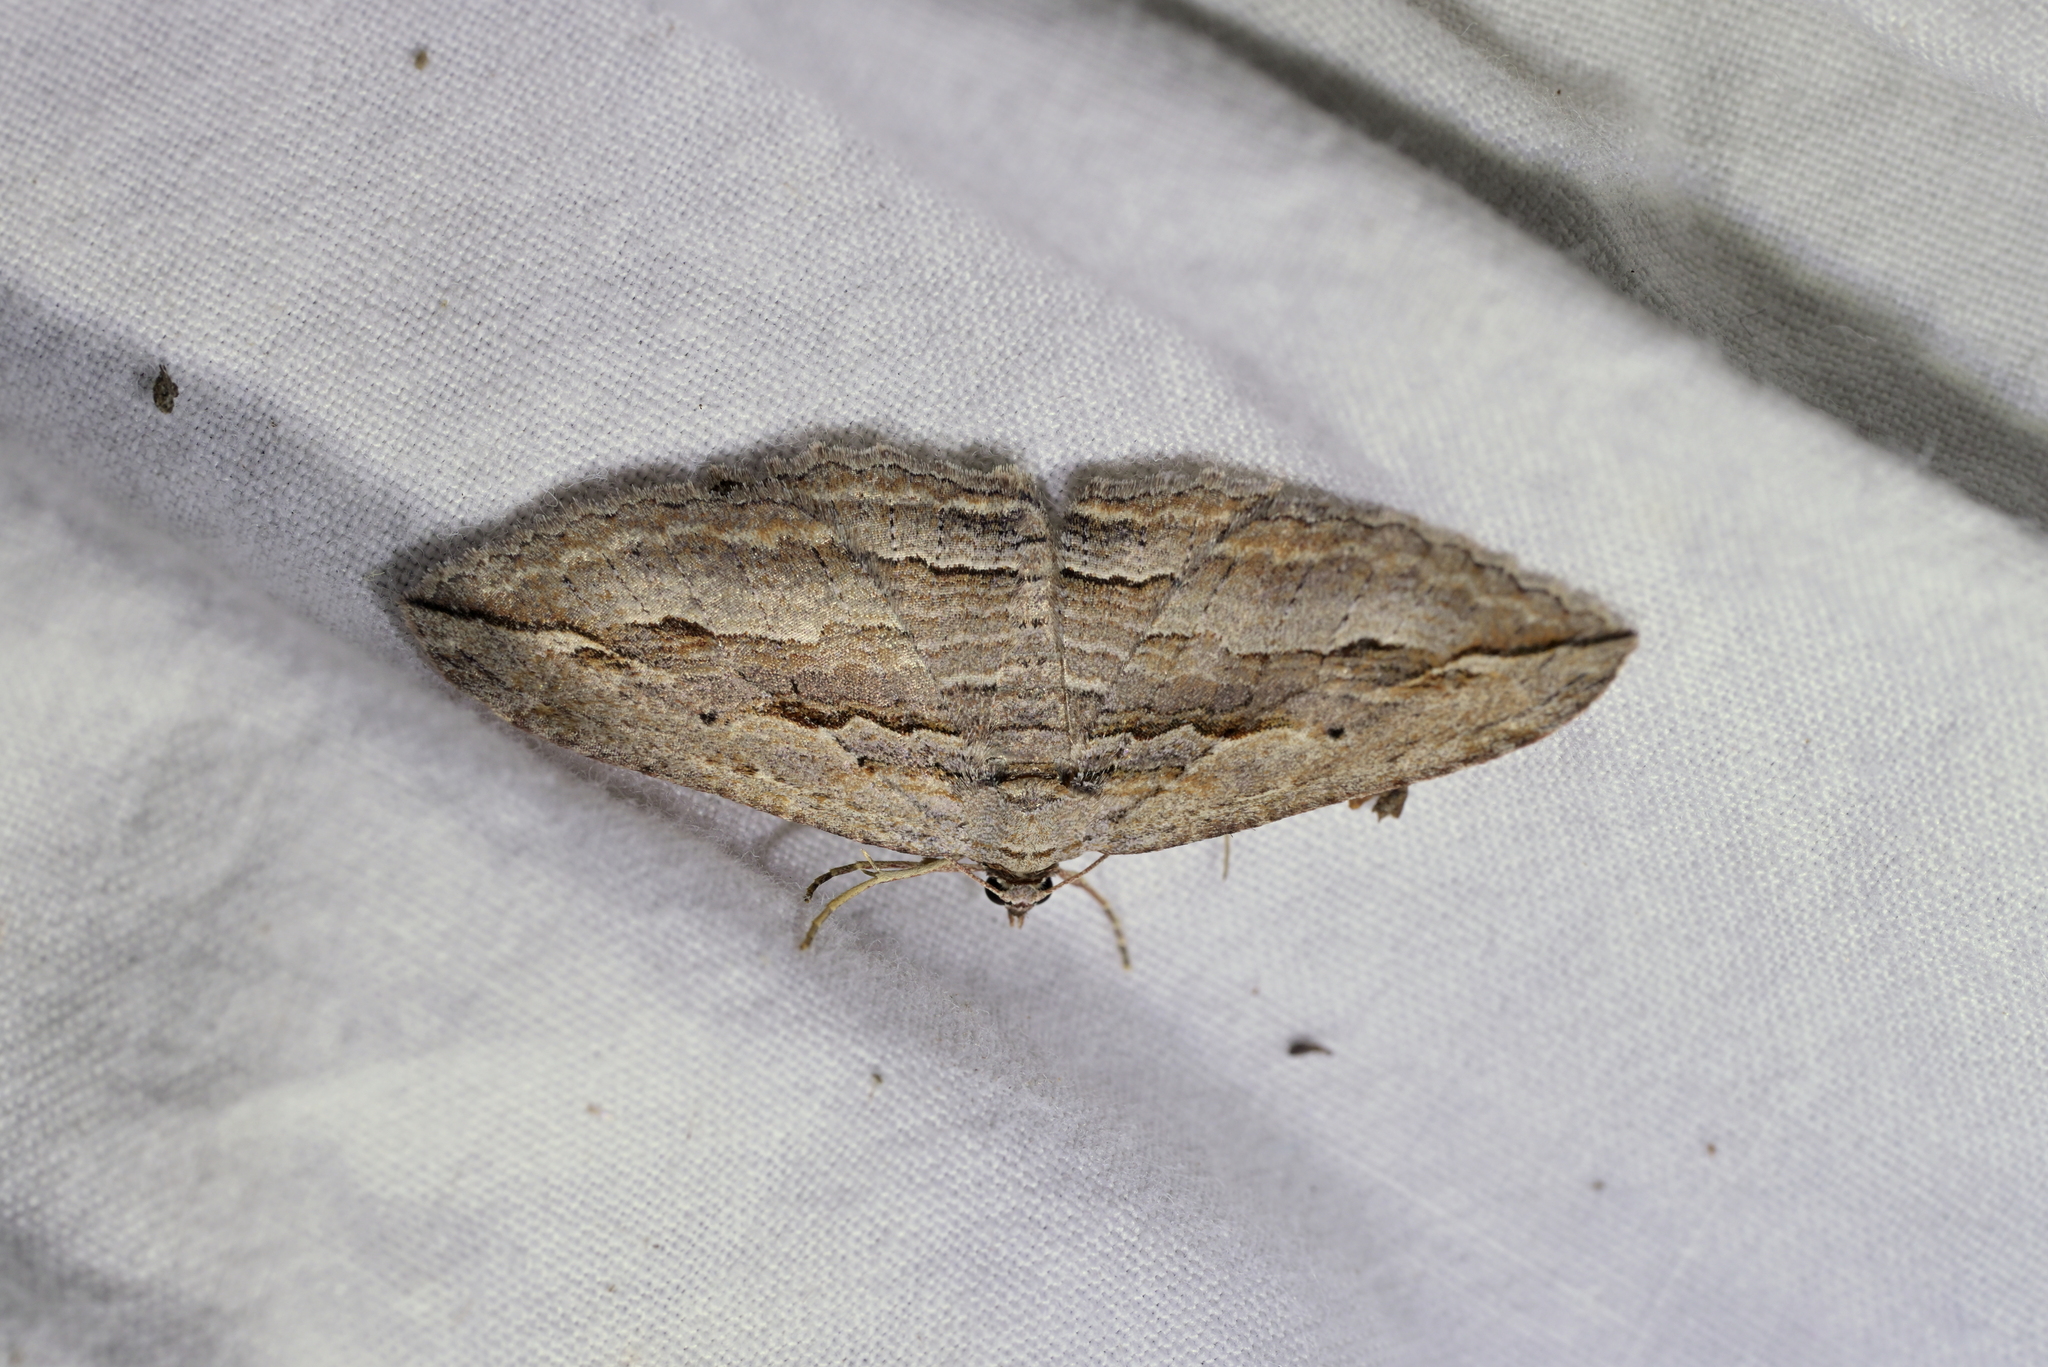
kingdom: Animalia
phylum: Arthropoda
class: Insecta
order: Lepidoptera
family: Geometridae
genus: Austrocidaria
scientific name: Austrocidaria gobiata
